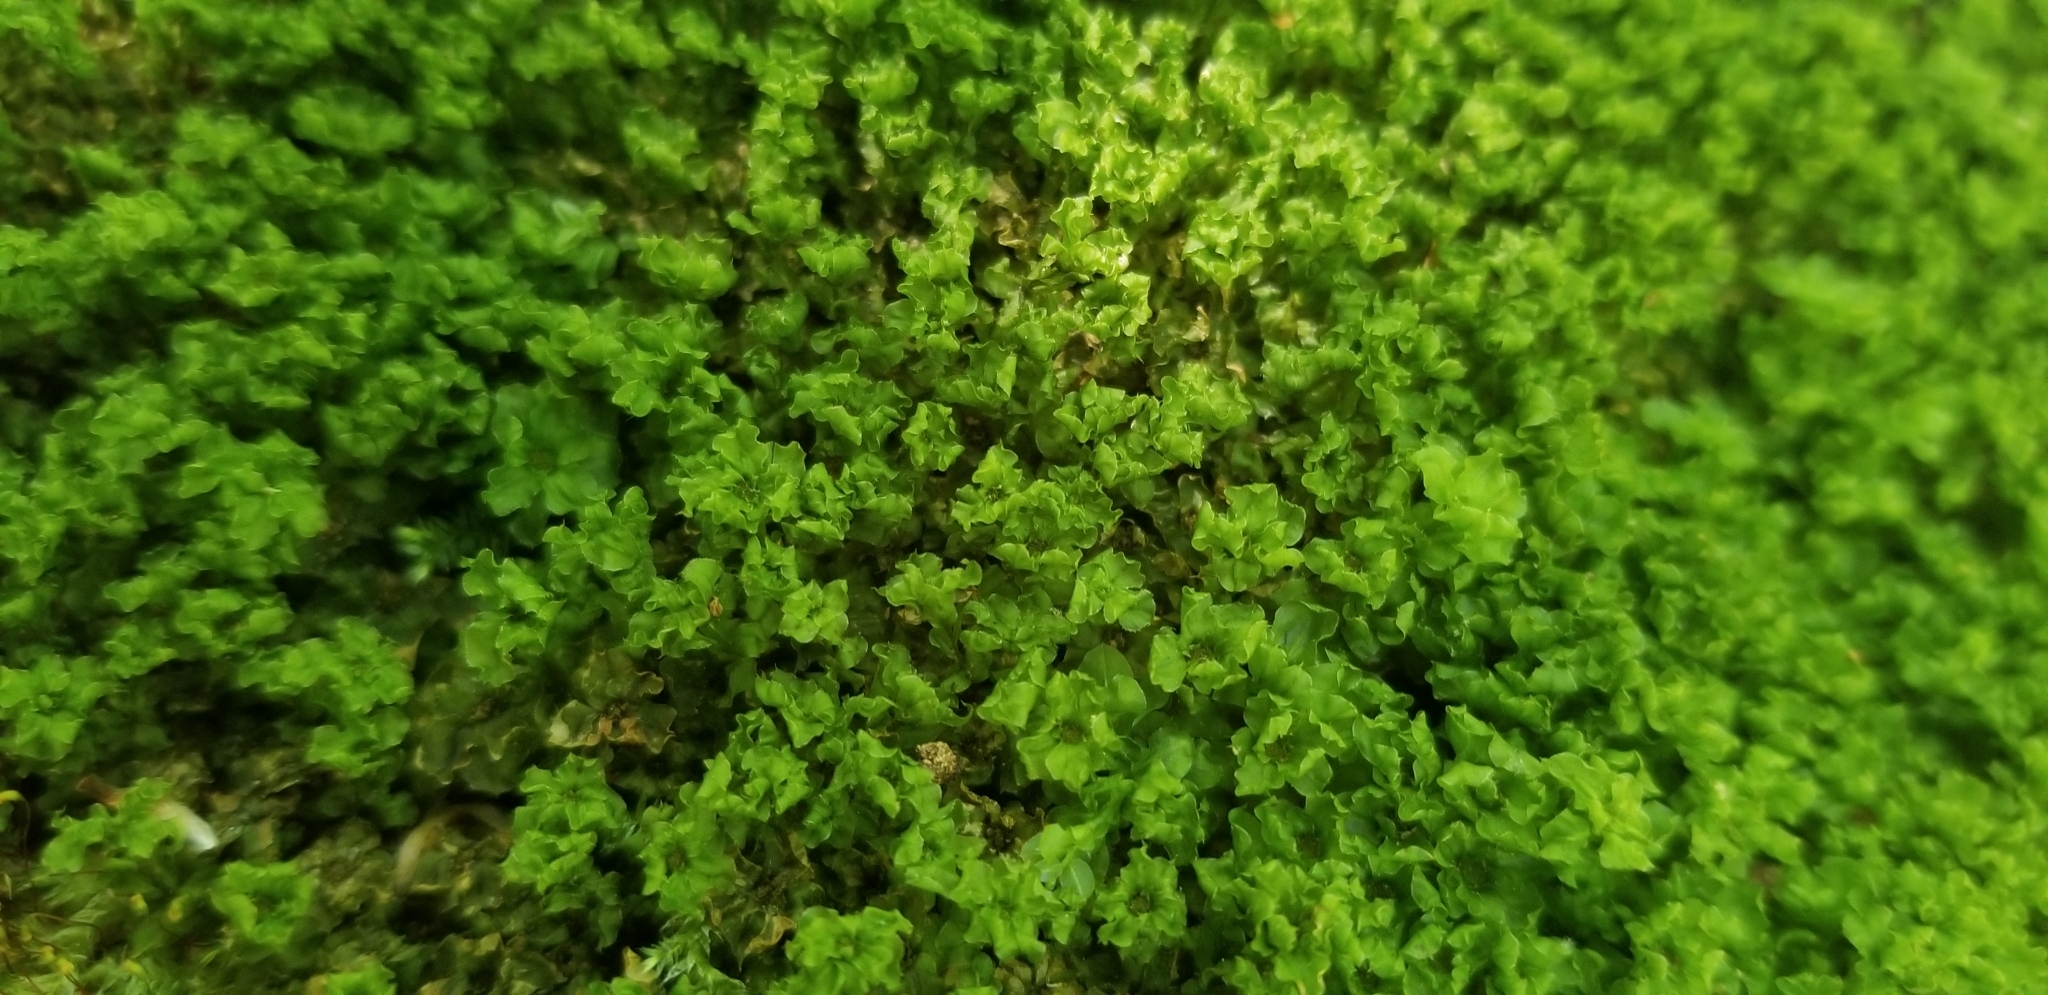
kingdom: Plantae
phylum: Bryophyta
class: Bryopsida
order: Bryales
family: Mniaceae
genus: Plagiomnium
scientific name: Plagiomnium cuspidatum
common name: Woodsy leafy moss
